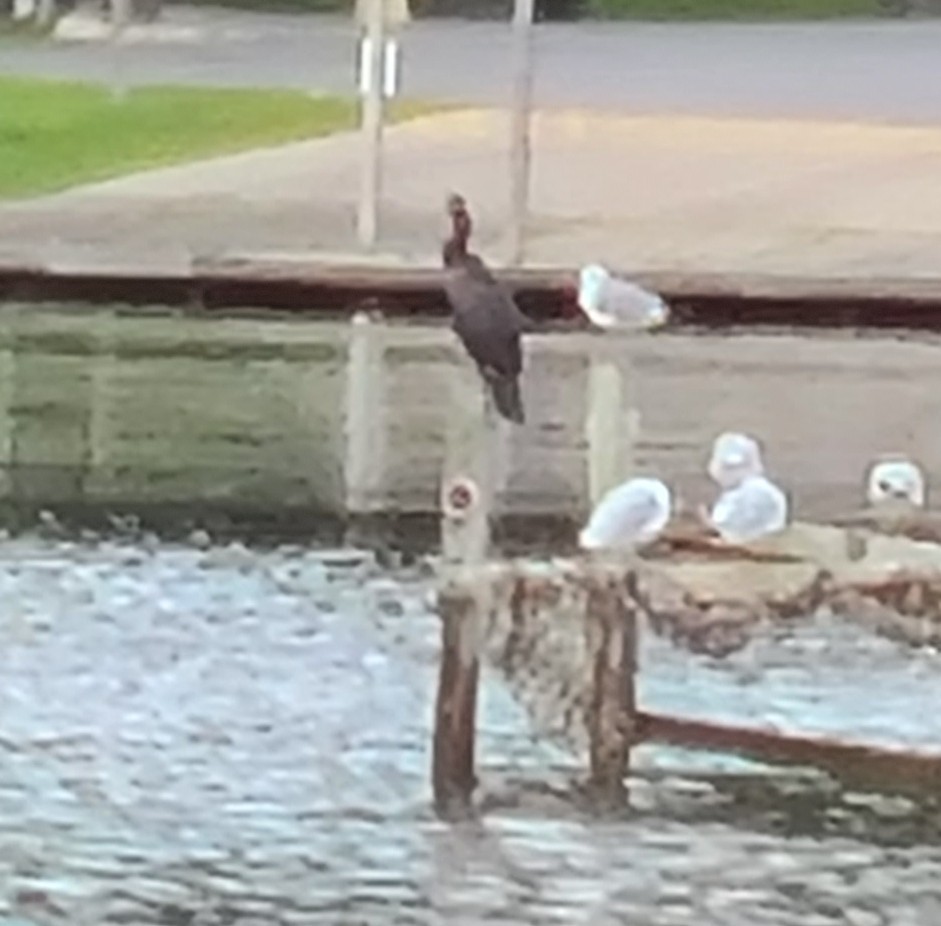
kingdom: Animalia
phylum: Chordata
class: Aves
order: Suliformes
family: Phalacrocoracidae
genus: Phalacrocorax
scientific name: Phalacrocorax auritus
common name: Double-crested cormorant
